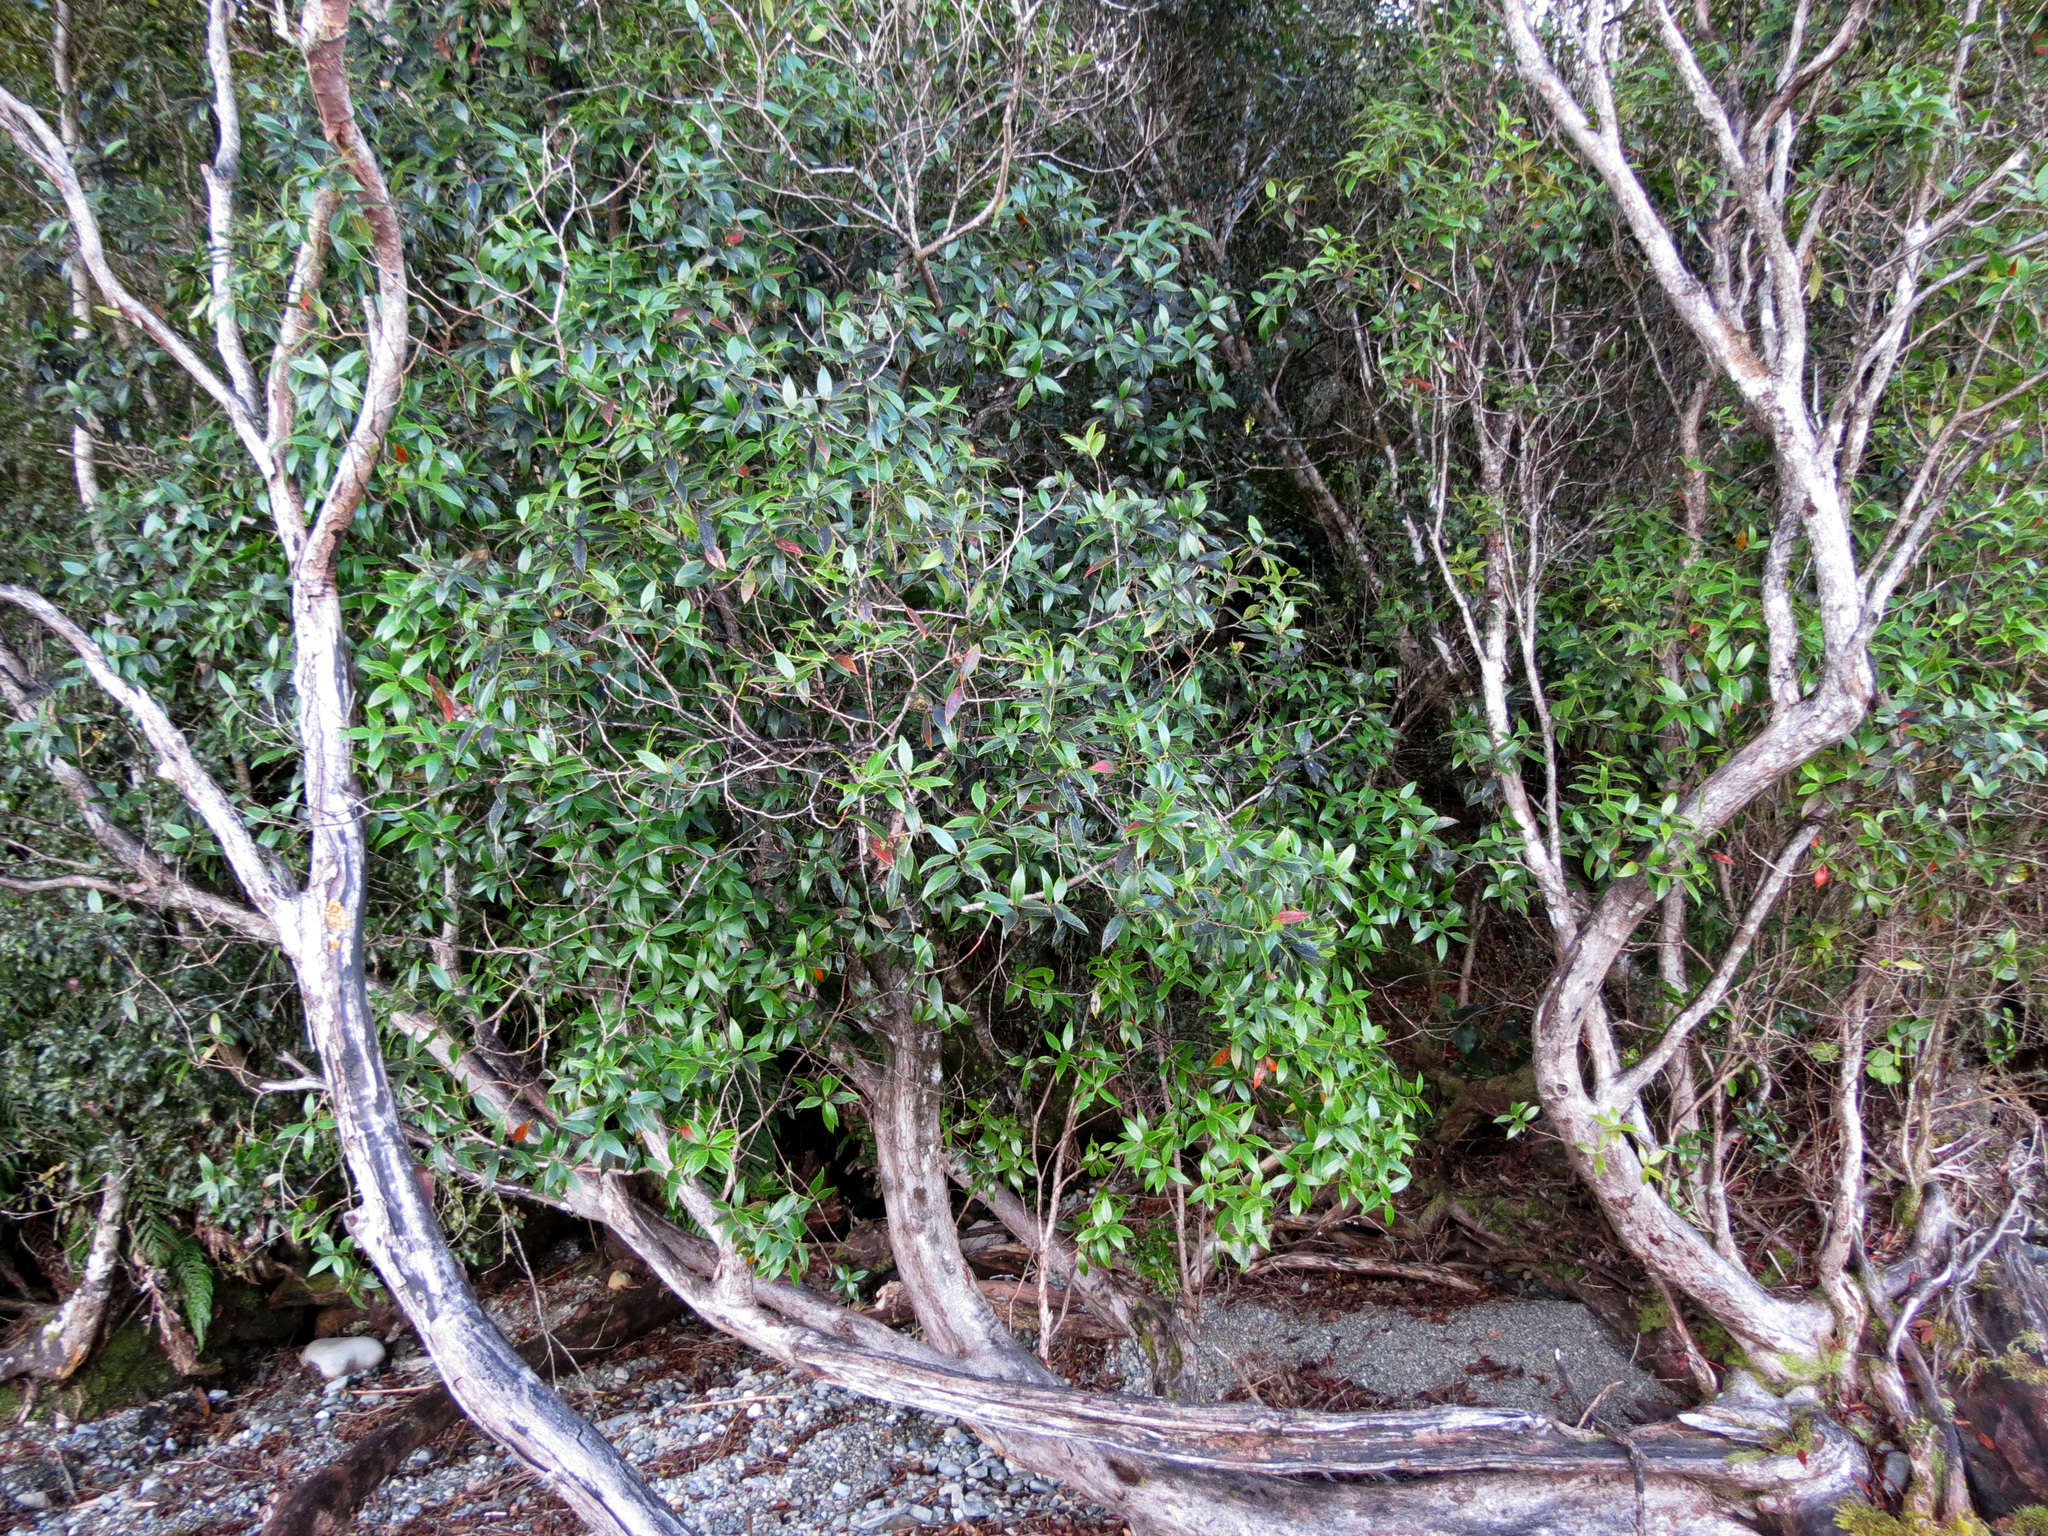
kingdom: Plantae
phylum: Tracheophyta
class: Magnoliopsida
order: Myrtales
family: Myrtaceae
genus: Metrosideros
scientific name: Metrosideros umbellata
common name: Southern rata
